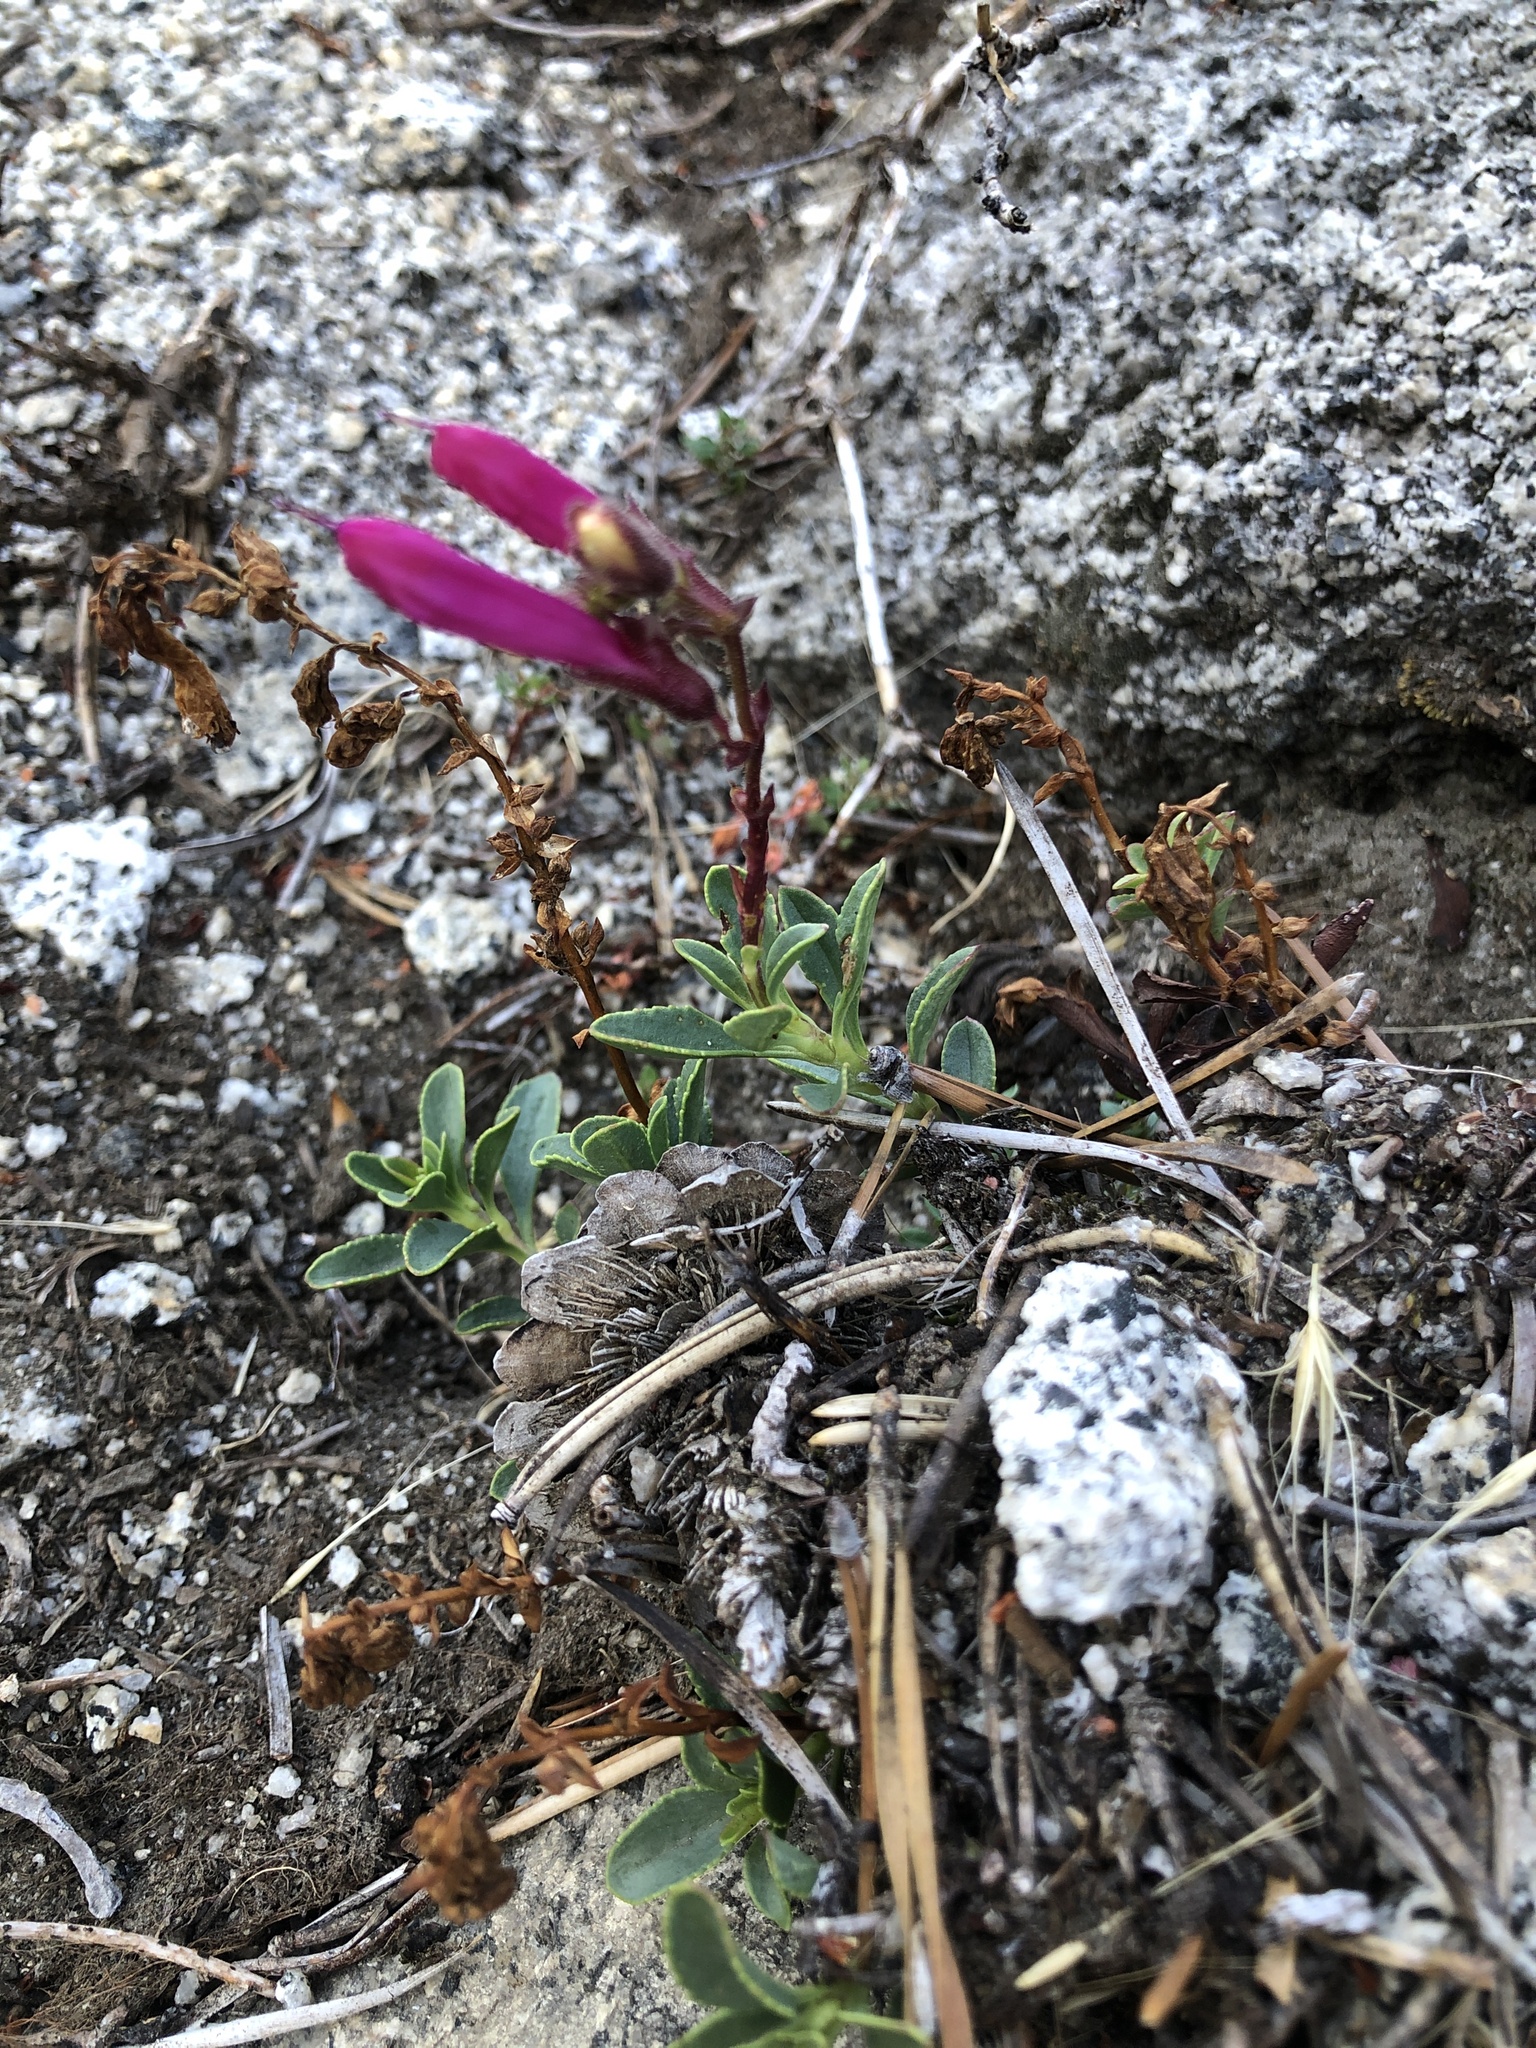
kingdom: Plantae
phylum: Tracheophyta
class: Magnoliopsida
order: Lamiales
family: Plantaginaceae
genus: Penstemon
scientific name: Penstemon newberryi
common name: Mountain-pride
